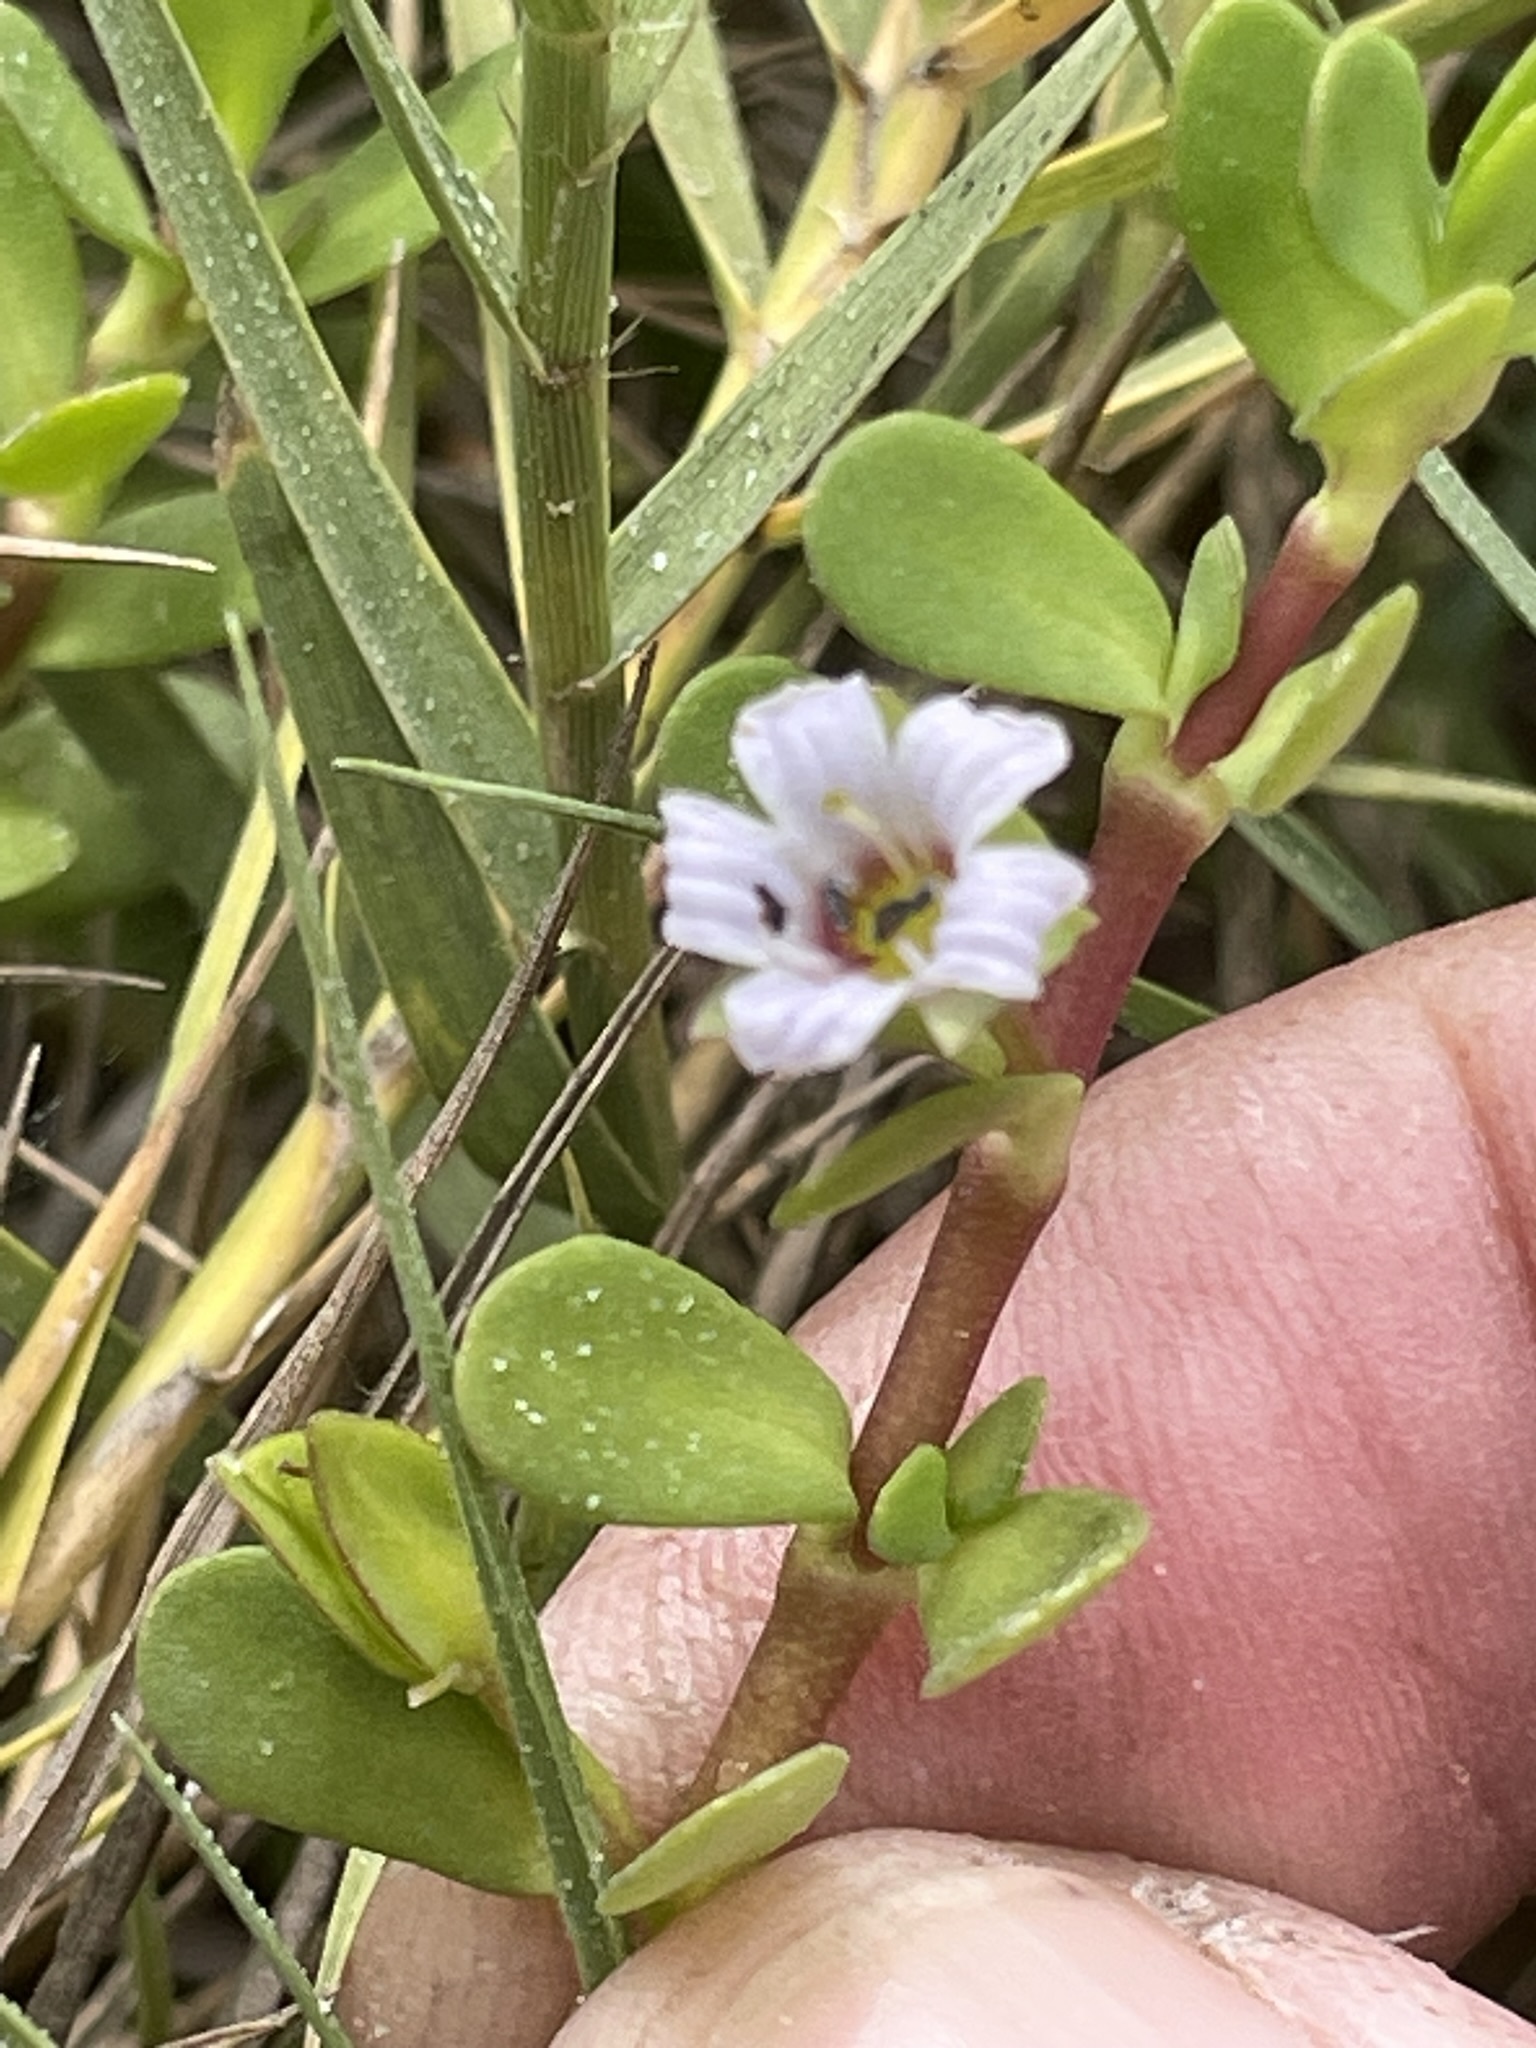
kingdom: Plantae
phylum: Tracheophyta
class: Magnoliopsida
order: Lamiales
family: Plantaginaceae
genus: Bacopa
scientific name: Bacopa monnieri
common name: Indian-pennywort
